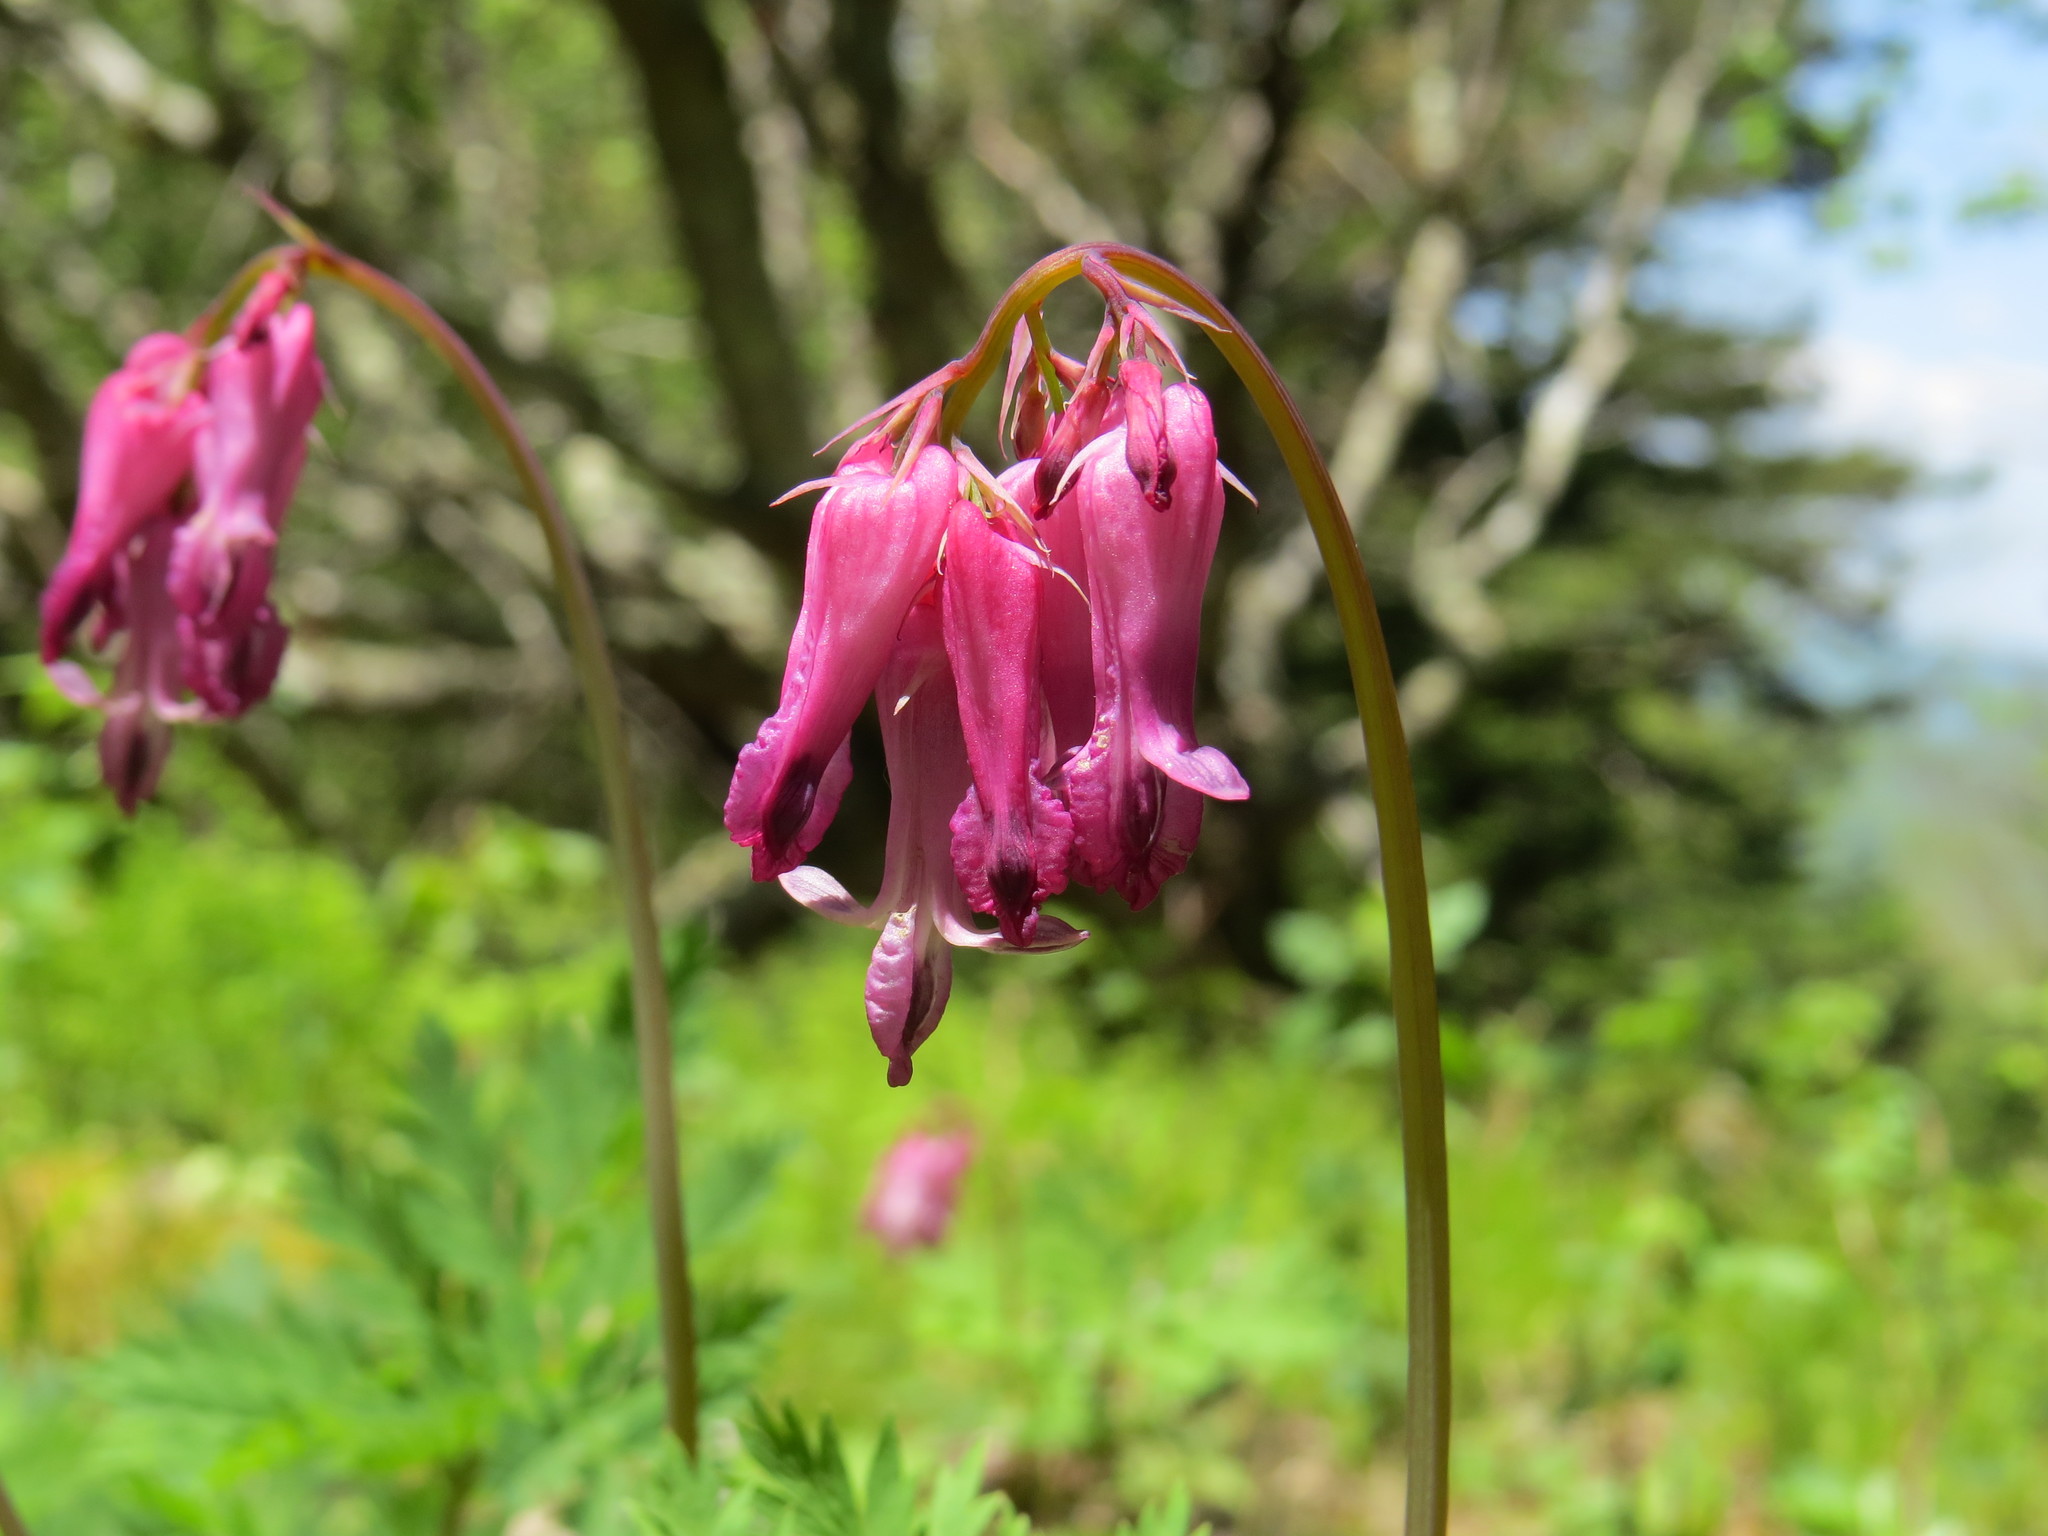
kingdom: Plantae
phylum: Tracheophyta
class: Magnoliopsida
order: Ranunculales
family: Papaveraceae
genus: Dicentra
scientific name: Dicentra eximia
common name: Turkey-corn
